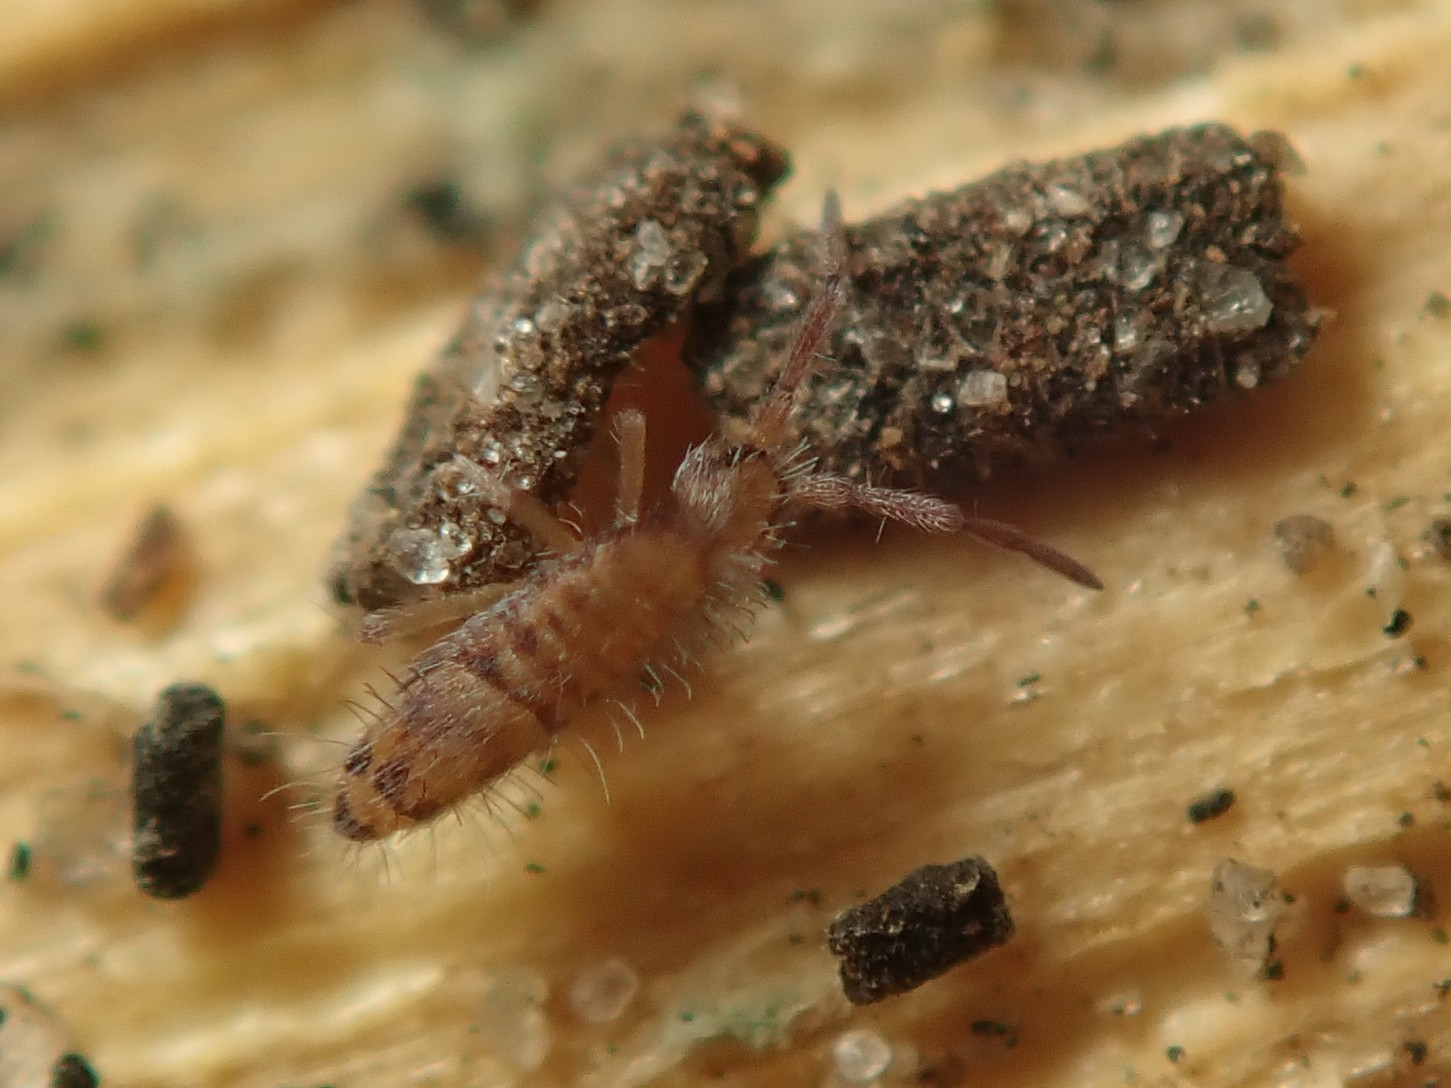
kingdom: Animalia
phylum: Arthropoda
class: Collembola
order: Entomobryomorpha
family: Entomobryidae
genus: Entomobrya
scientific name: Entomobrya multifasciata
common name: Springtail
